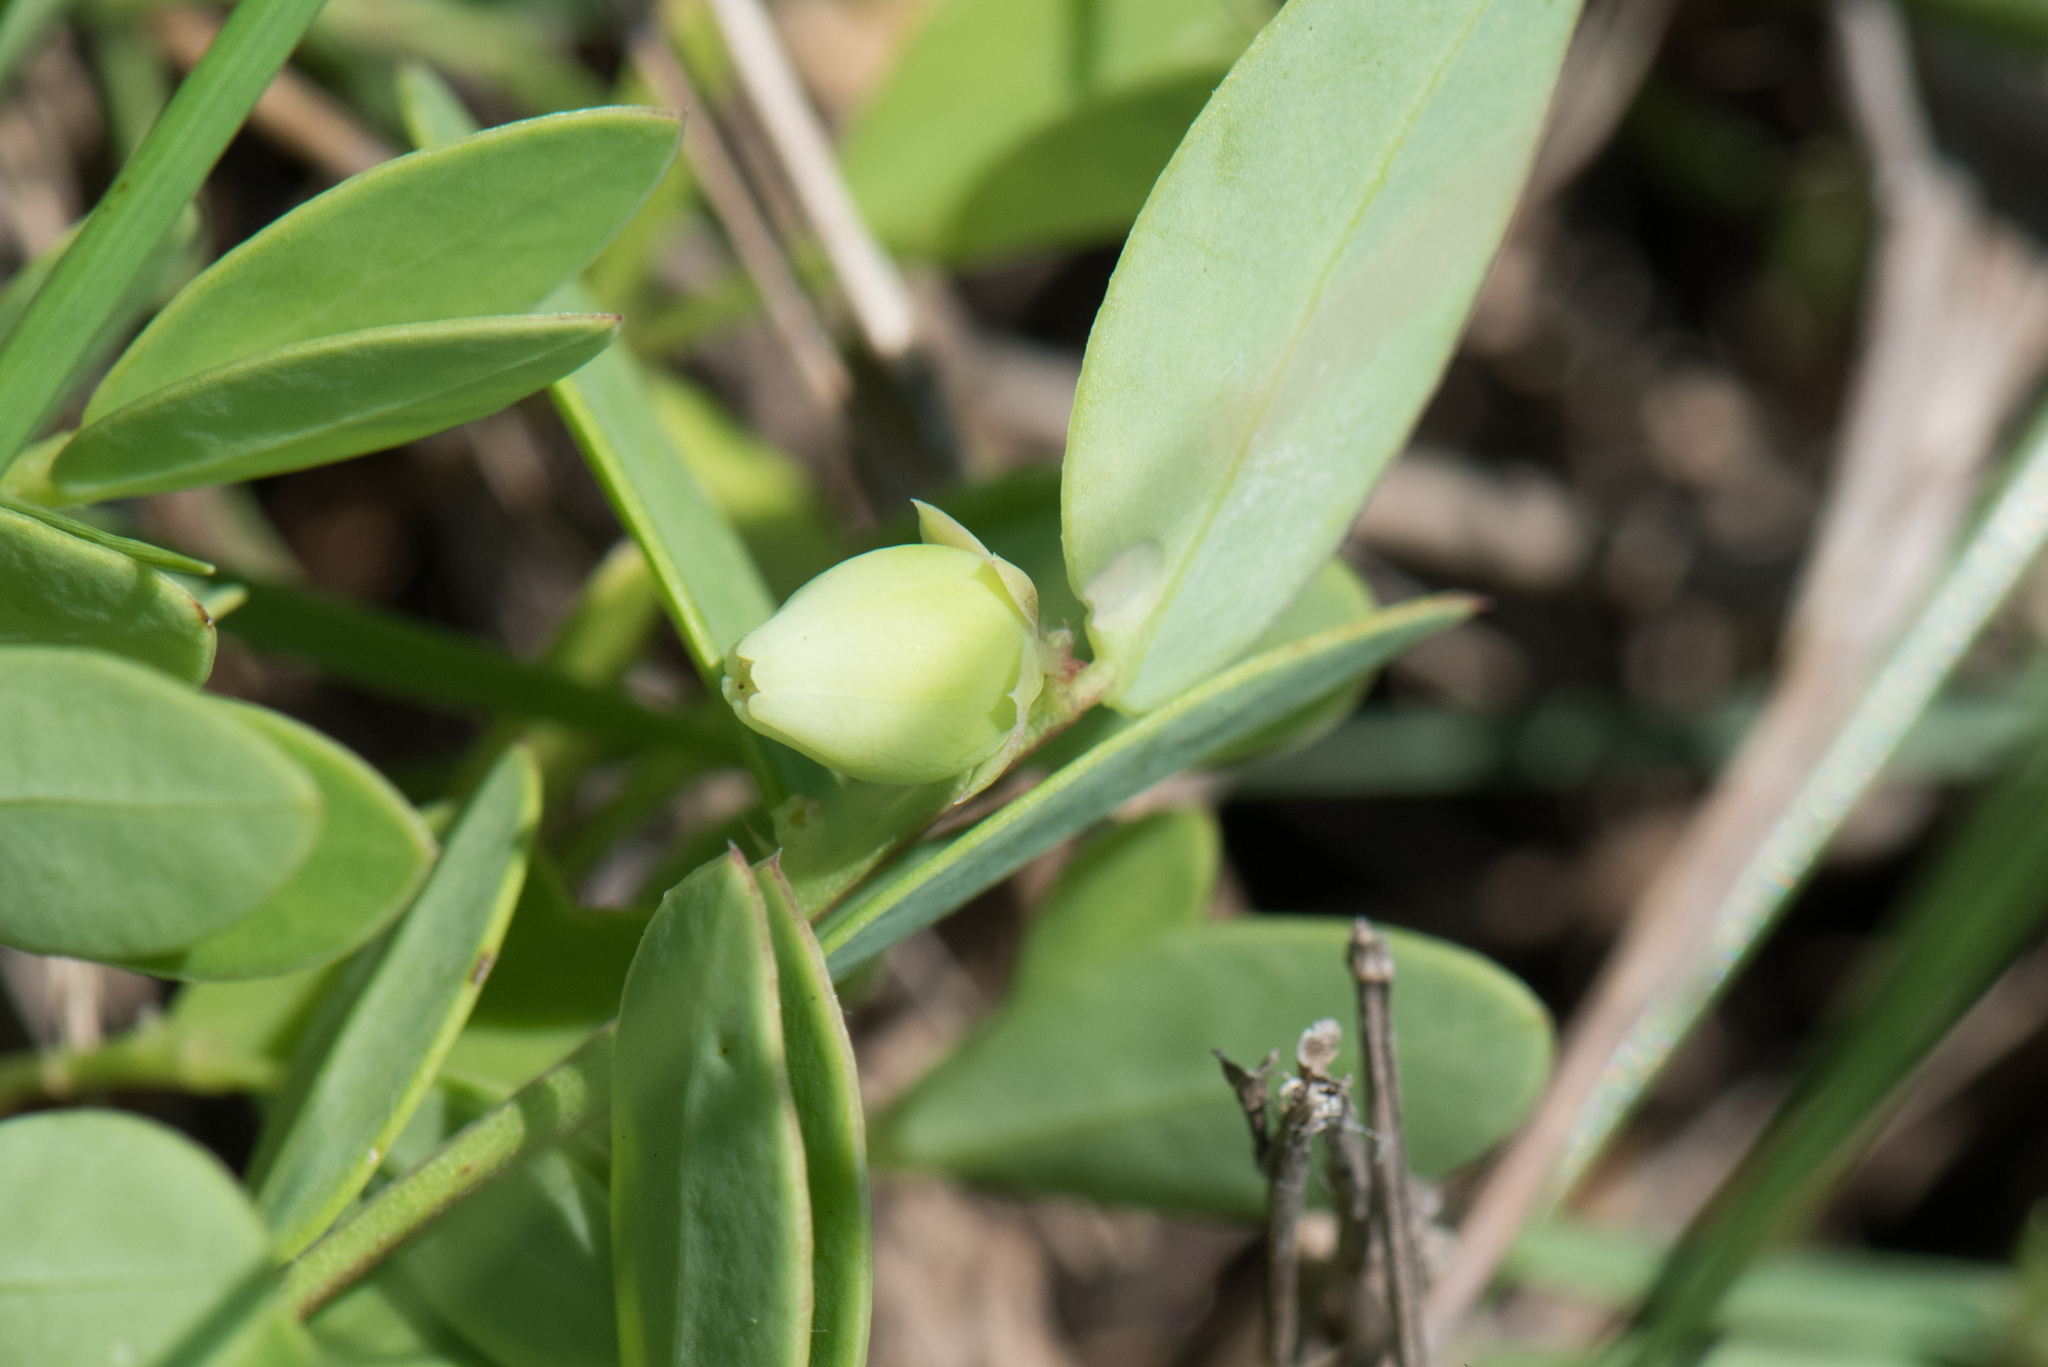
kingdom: Plantae
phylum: Tracheophyta
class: Magnoliopsida
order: Malpighiales
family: Phyllanthaceae
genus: Synostemon
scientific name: Synostemon bacciformis
